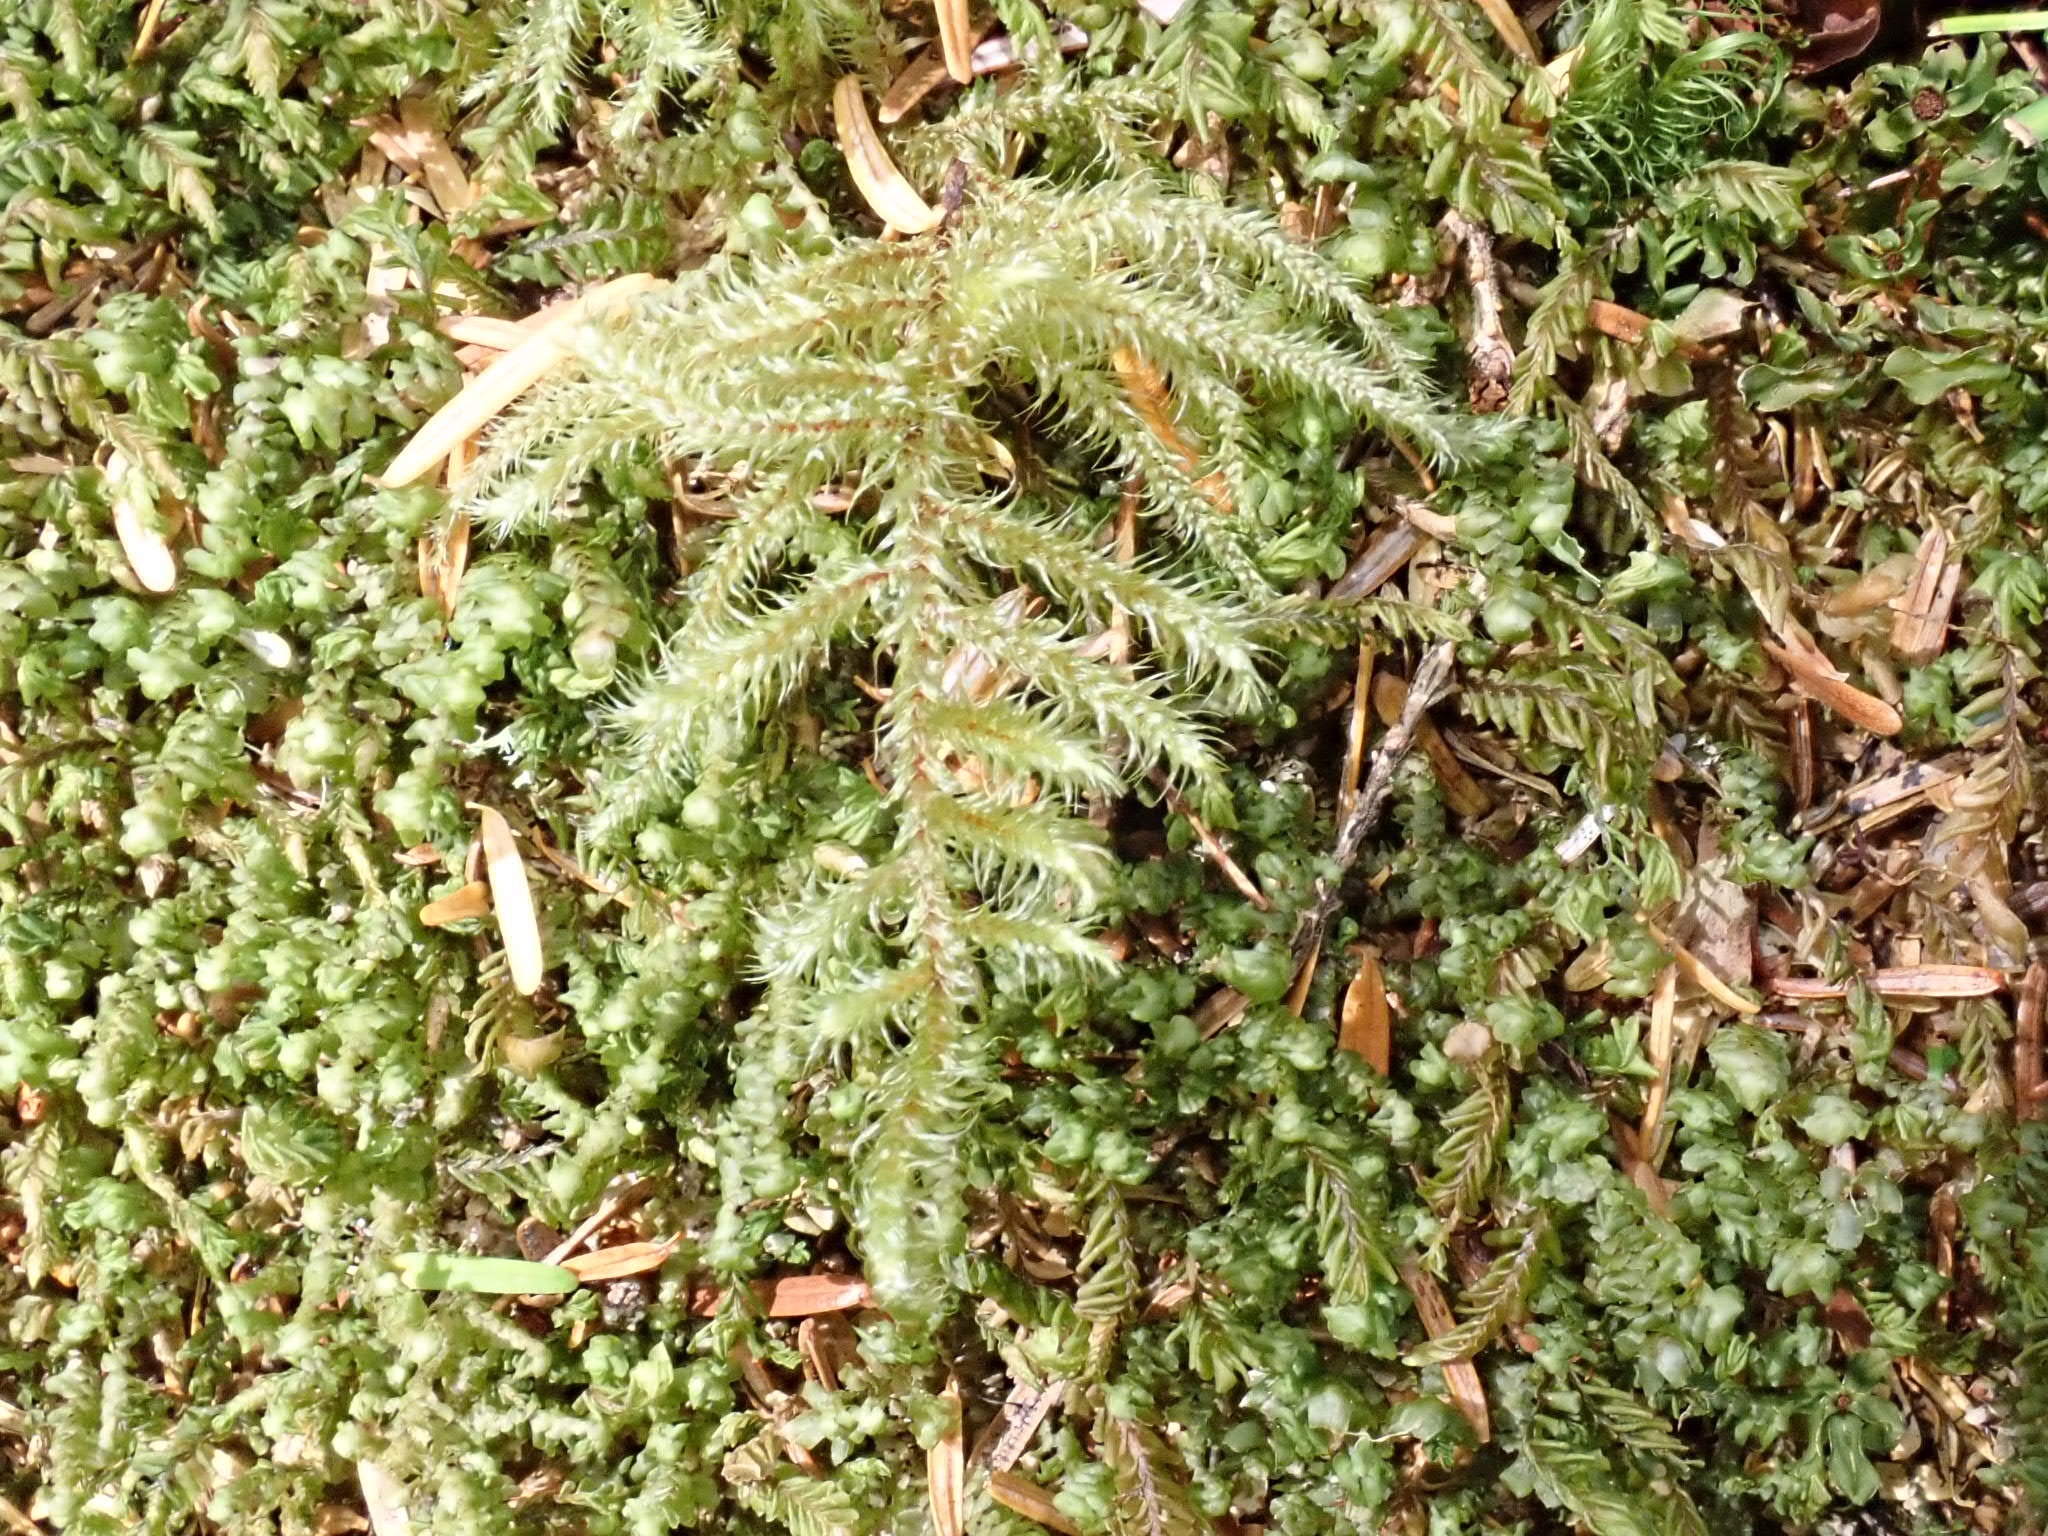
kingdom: Plantae
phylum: Bryophyta
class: Bryopsida
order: Hypnales
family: Hylocomiaceae
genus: Rhytidiadelphus
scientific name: Rhytidiadelphus loreus
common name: Lanky moss
